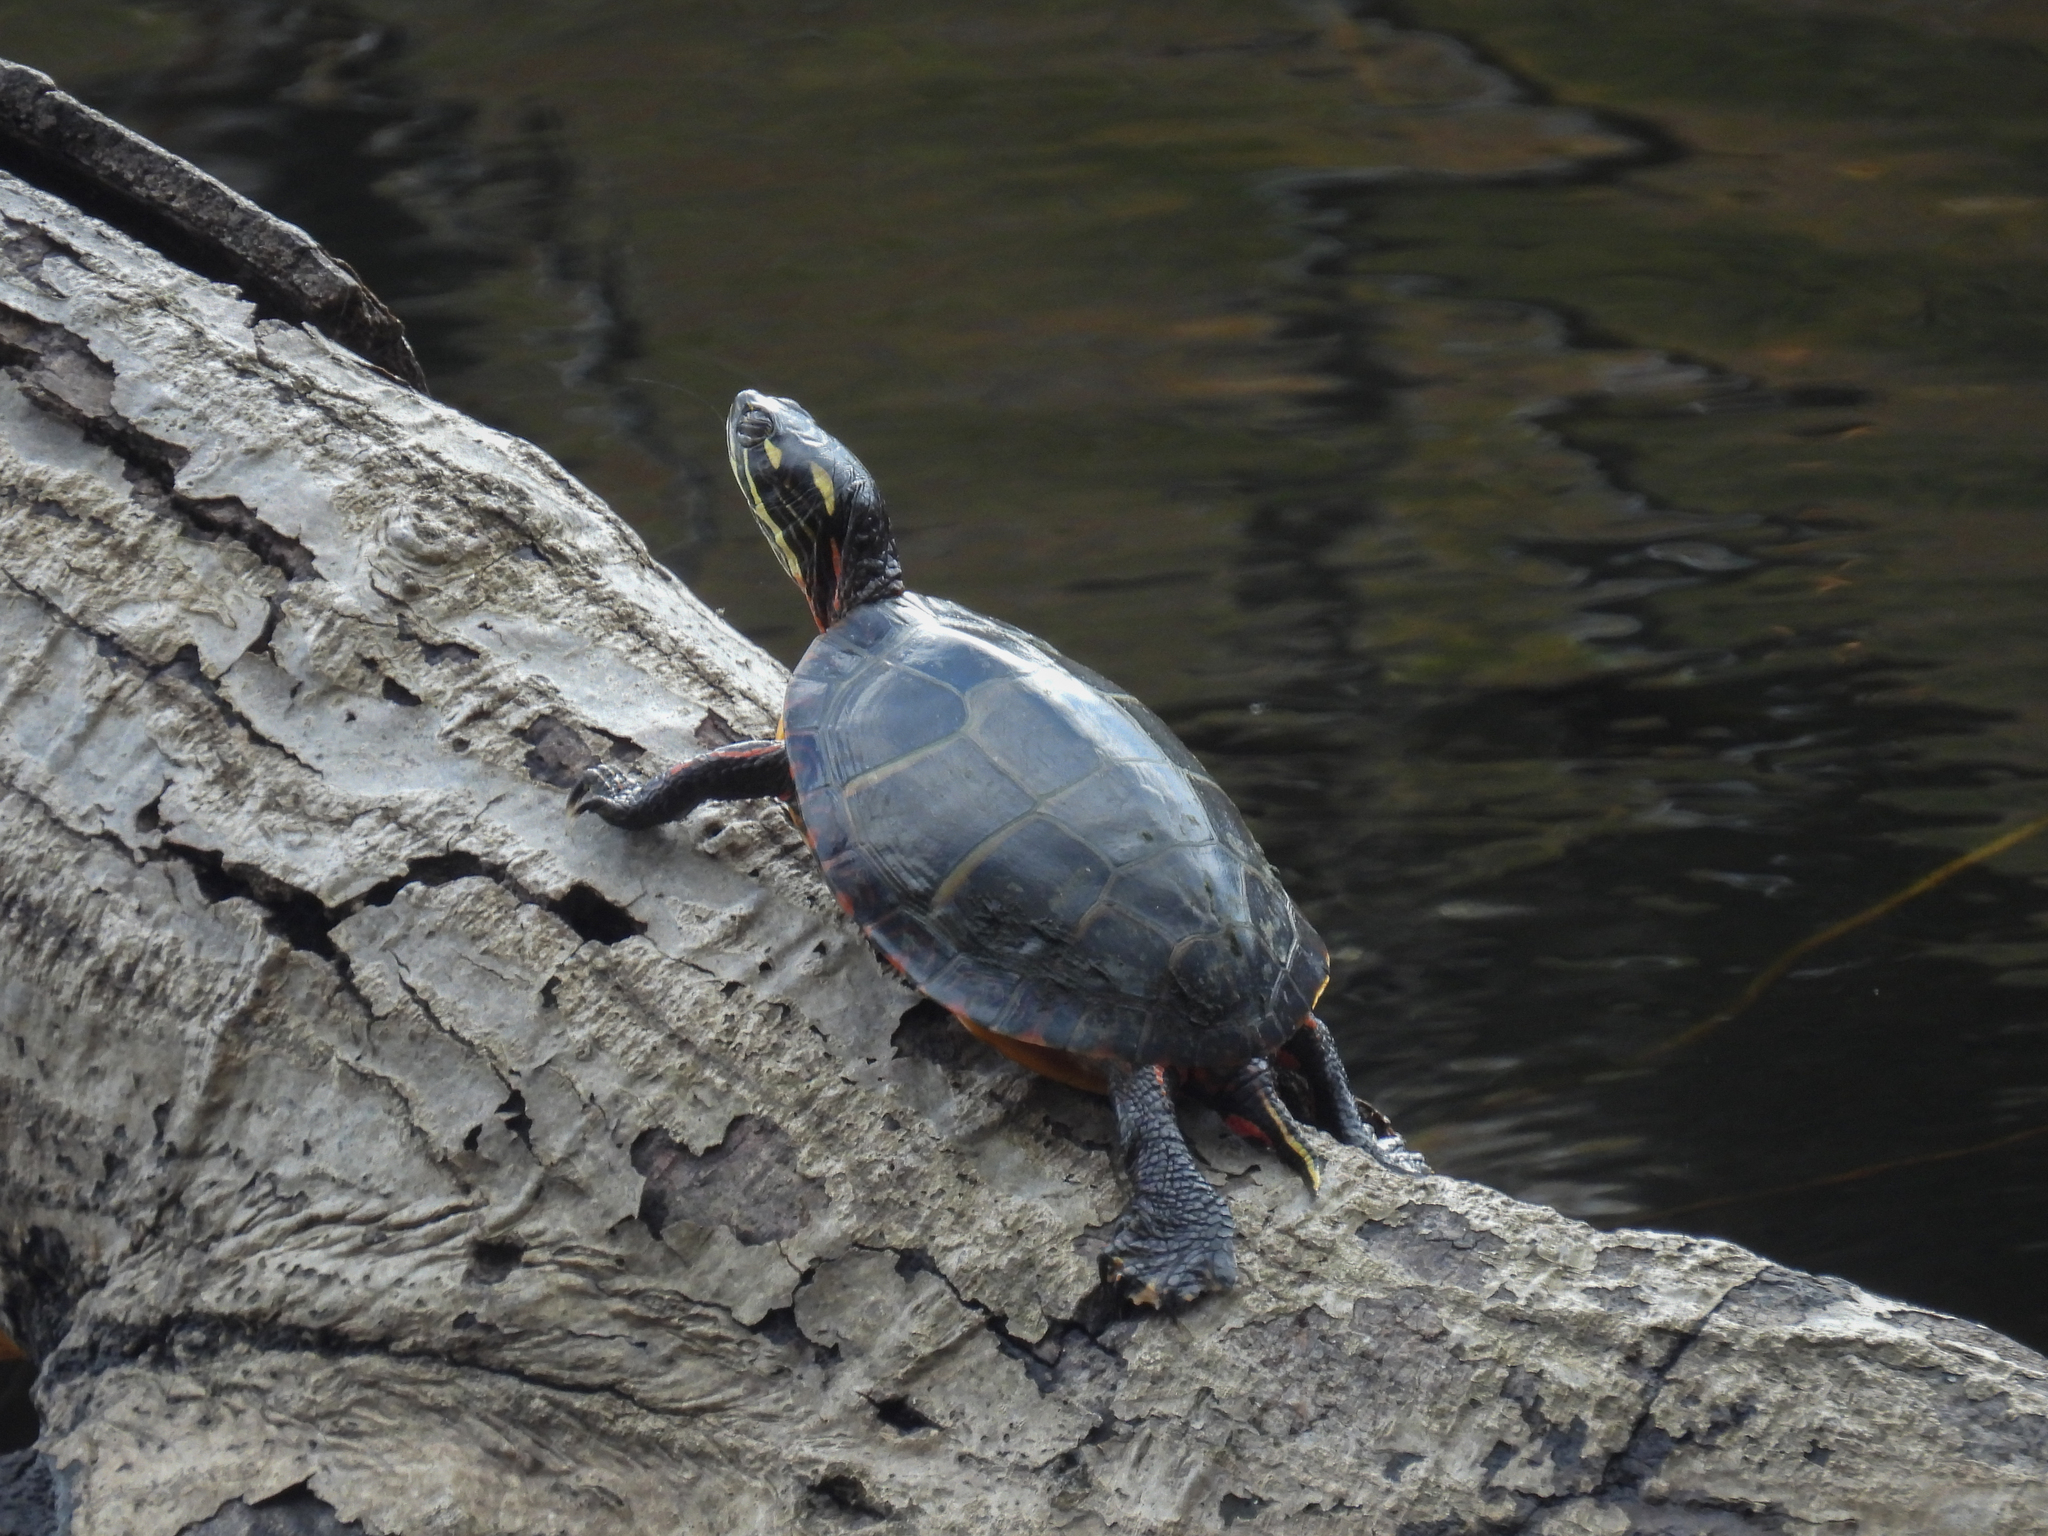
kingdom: Animalia
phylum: Chordata
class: Testudines
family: Emydidae
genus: Chrysemys
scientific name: Chrysemys picta
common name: Painted turtle
